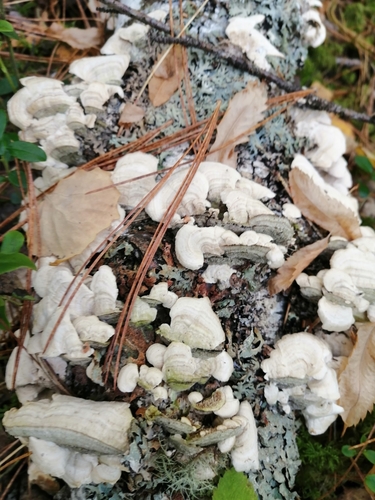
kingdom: Fungi
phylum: Basidiomycota
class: Agaricomycetes
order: Hymenochaetales
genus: Trichaptum
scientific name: Trichaptum biforme
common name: Violet-toothed polypore
